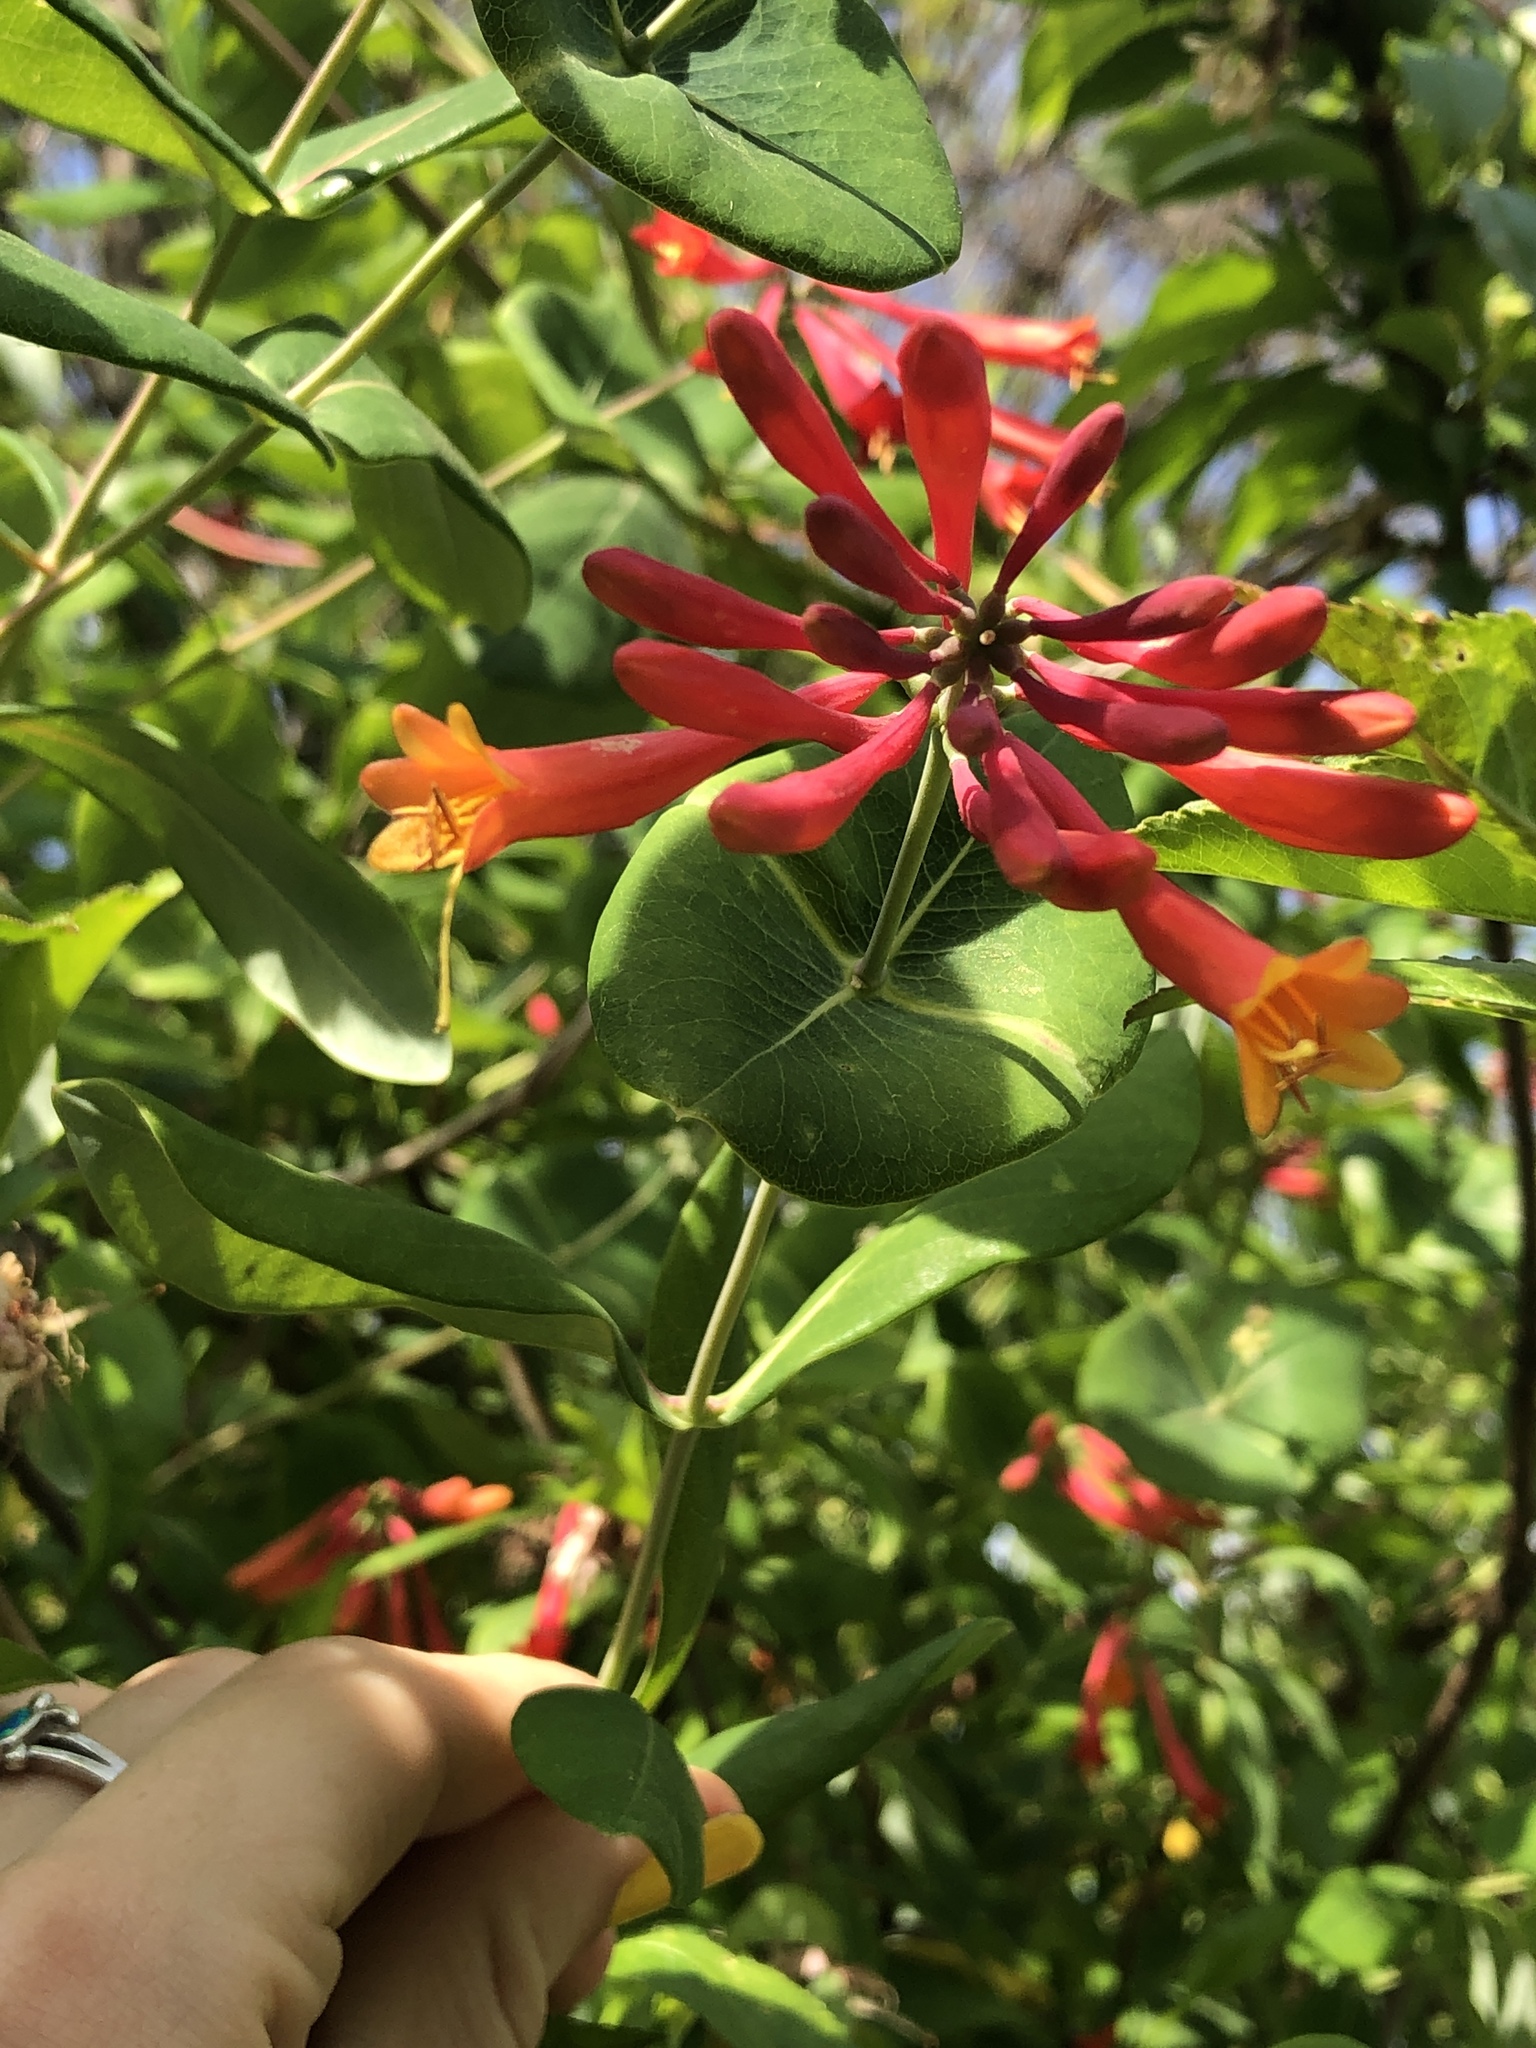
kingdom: Plantae
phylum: Tracheophyta
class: Magnoliopsida
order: Dipsacales
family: Caprifoliaceae
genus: Lonicera
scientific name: Lonicera sempervirens
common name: Coral honeysuckle
